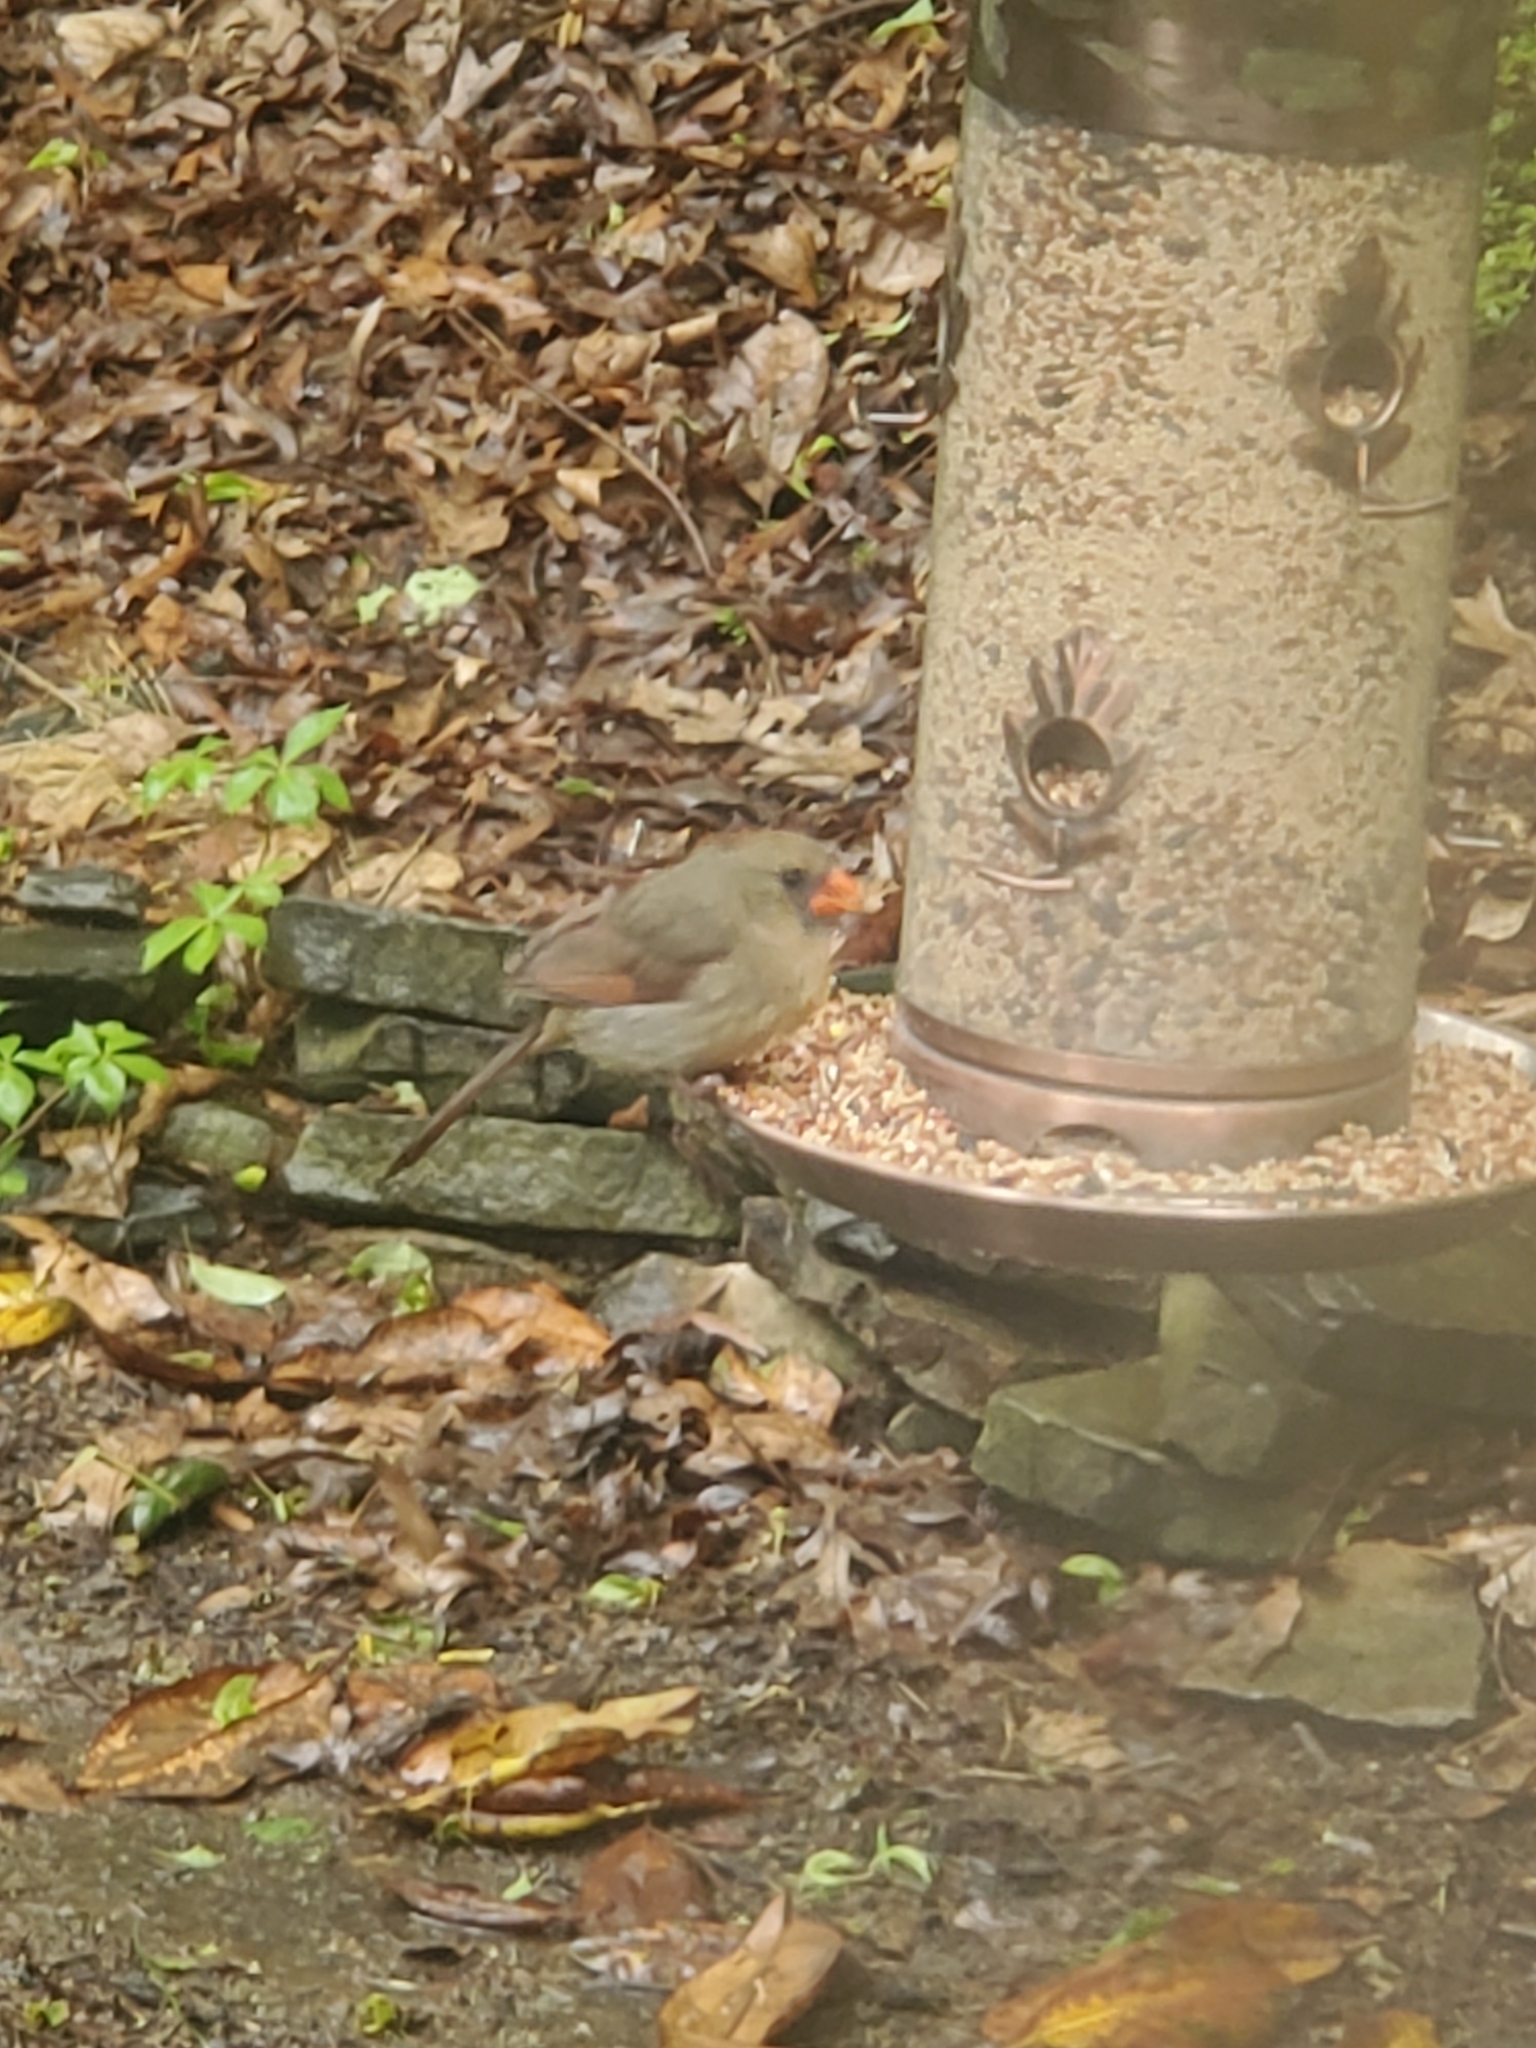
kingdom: Animalia
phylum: Chordata
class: Aves
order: Passeriformes
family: Cardinalidae
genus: Cardinalis
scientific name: Cardinalis cardinalis
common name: Northern cardinal
